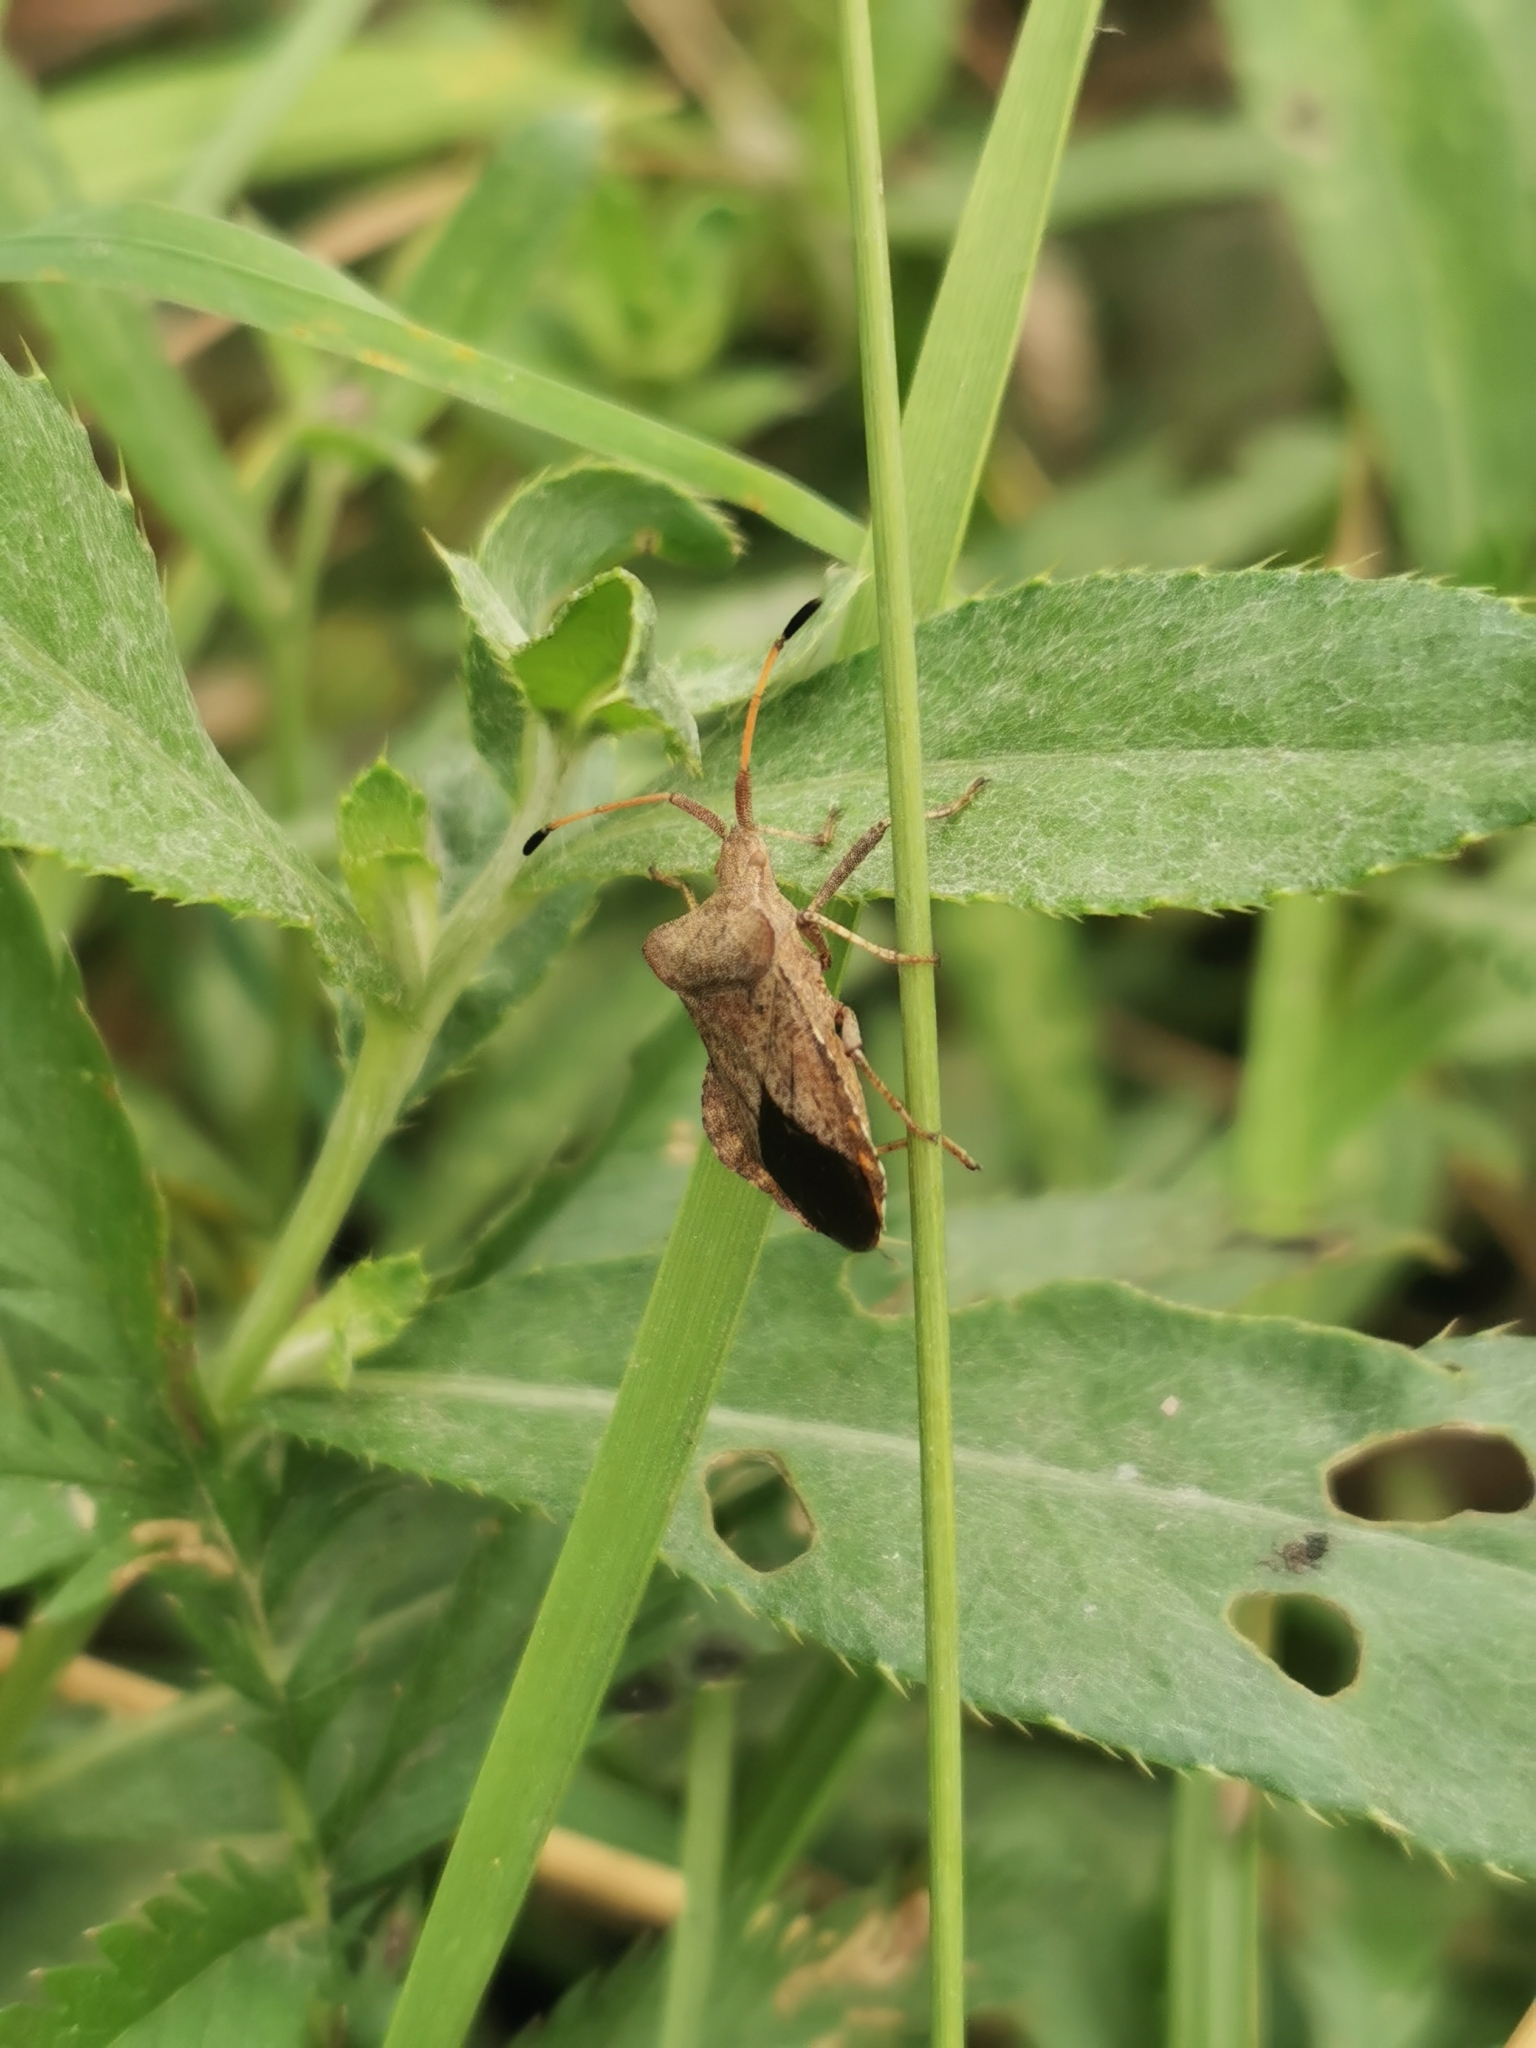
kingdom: Animalia
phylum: Arthropoda
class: Insecta
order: Hemiptera
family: Coreidae
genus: Coreus
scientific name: Coreus marginatus
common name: Dock bug
